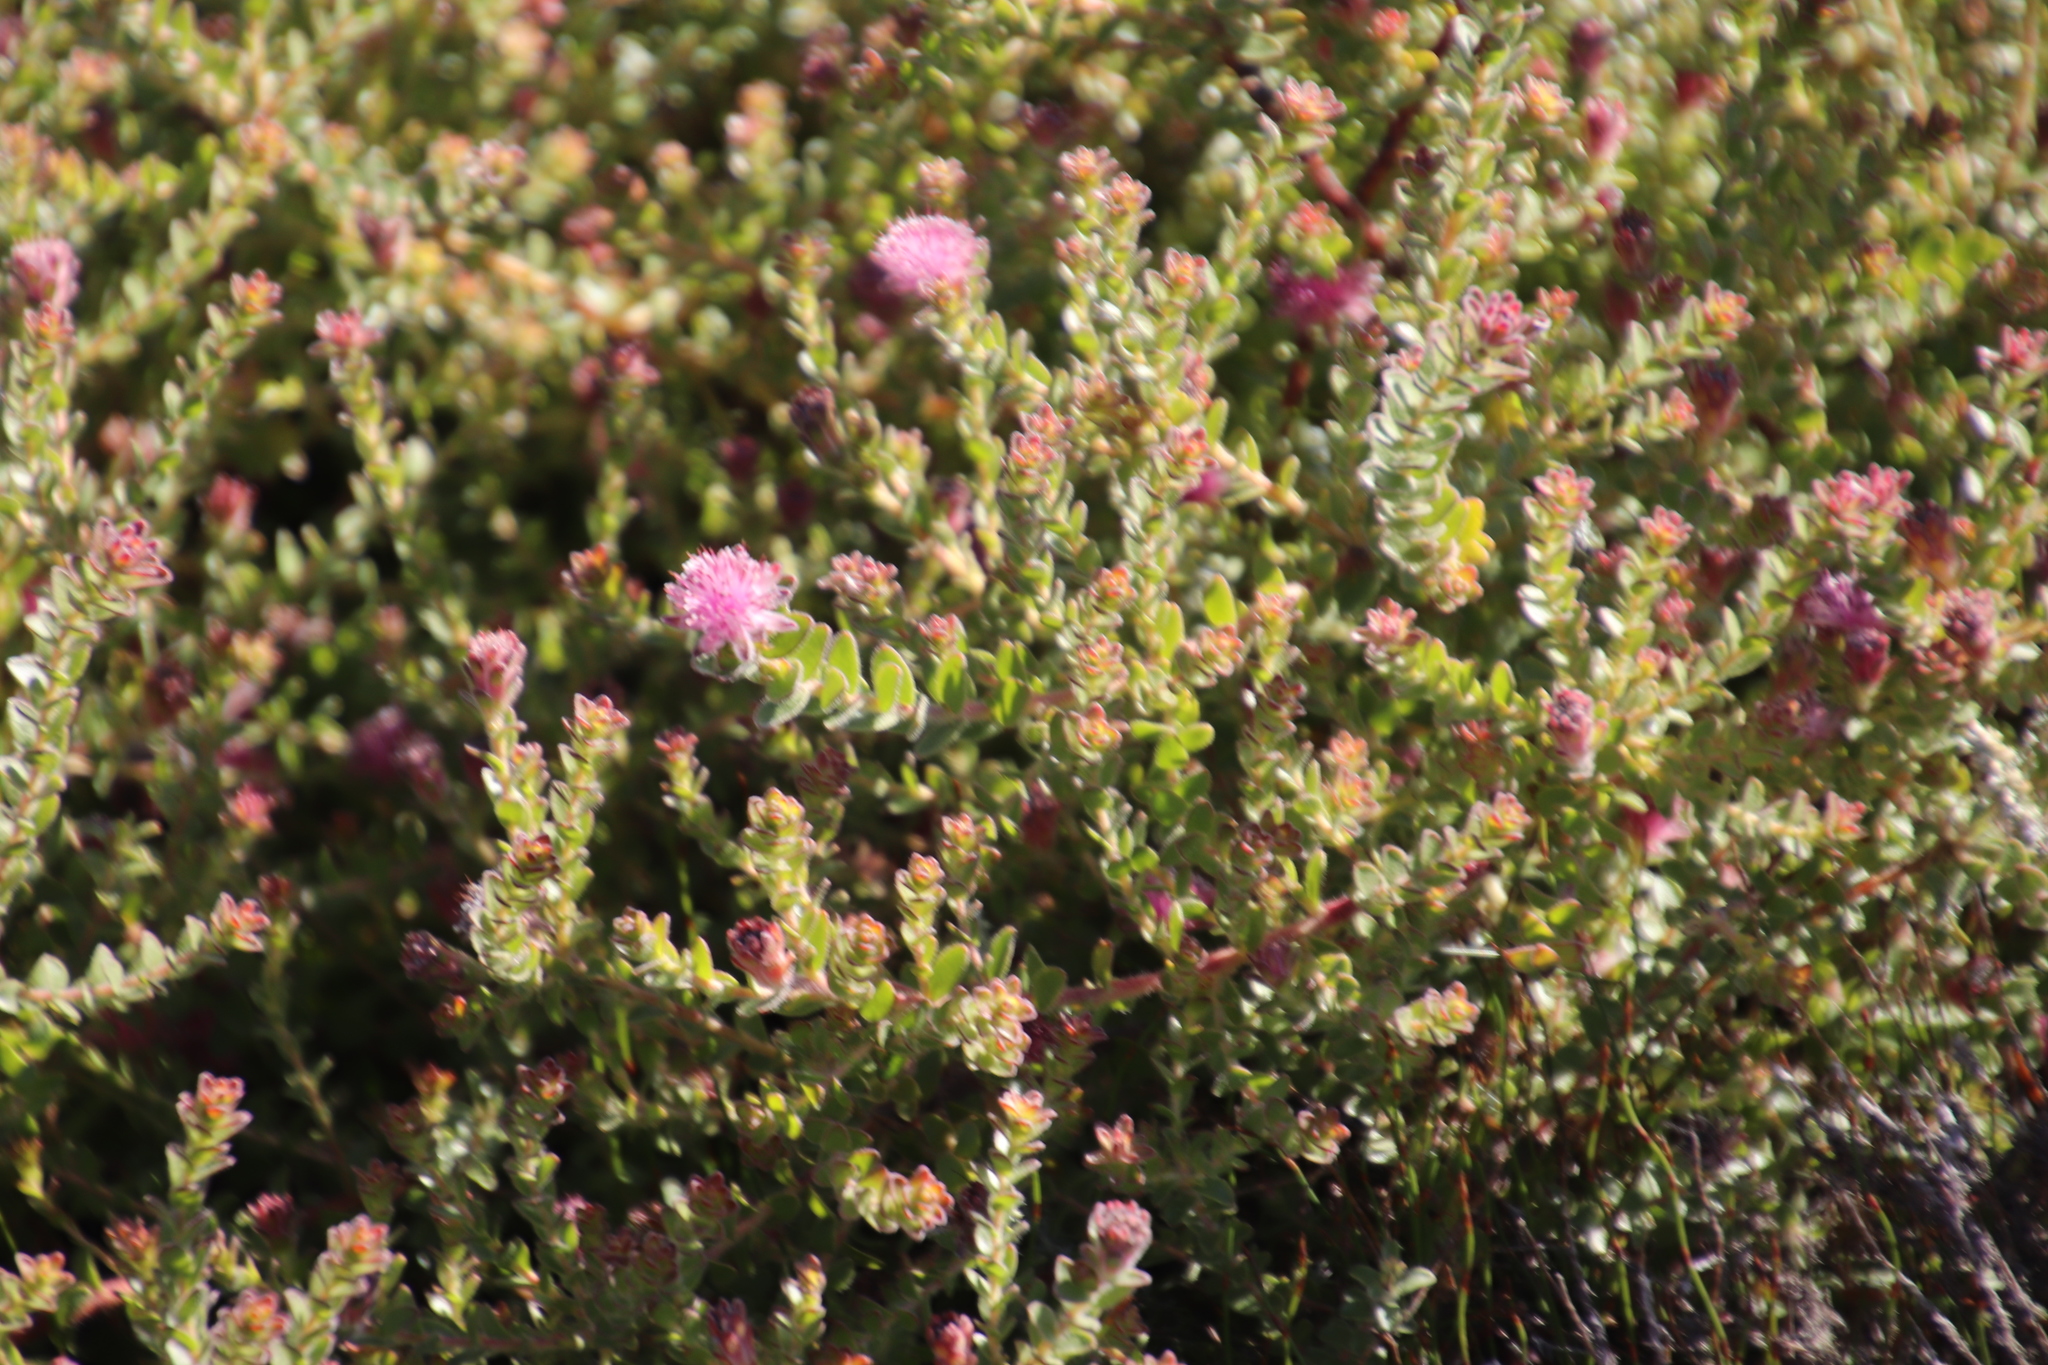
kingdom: Plantae
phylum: Tracheophyta
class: Magnoliopsida
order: Proteales
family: Proteaceae
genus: Diastella
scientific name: Diastella divaricata
